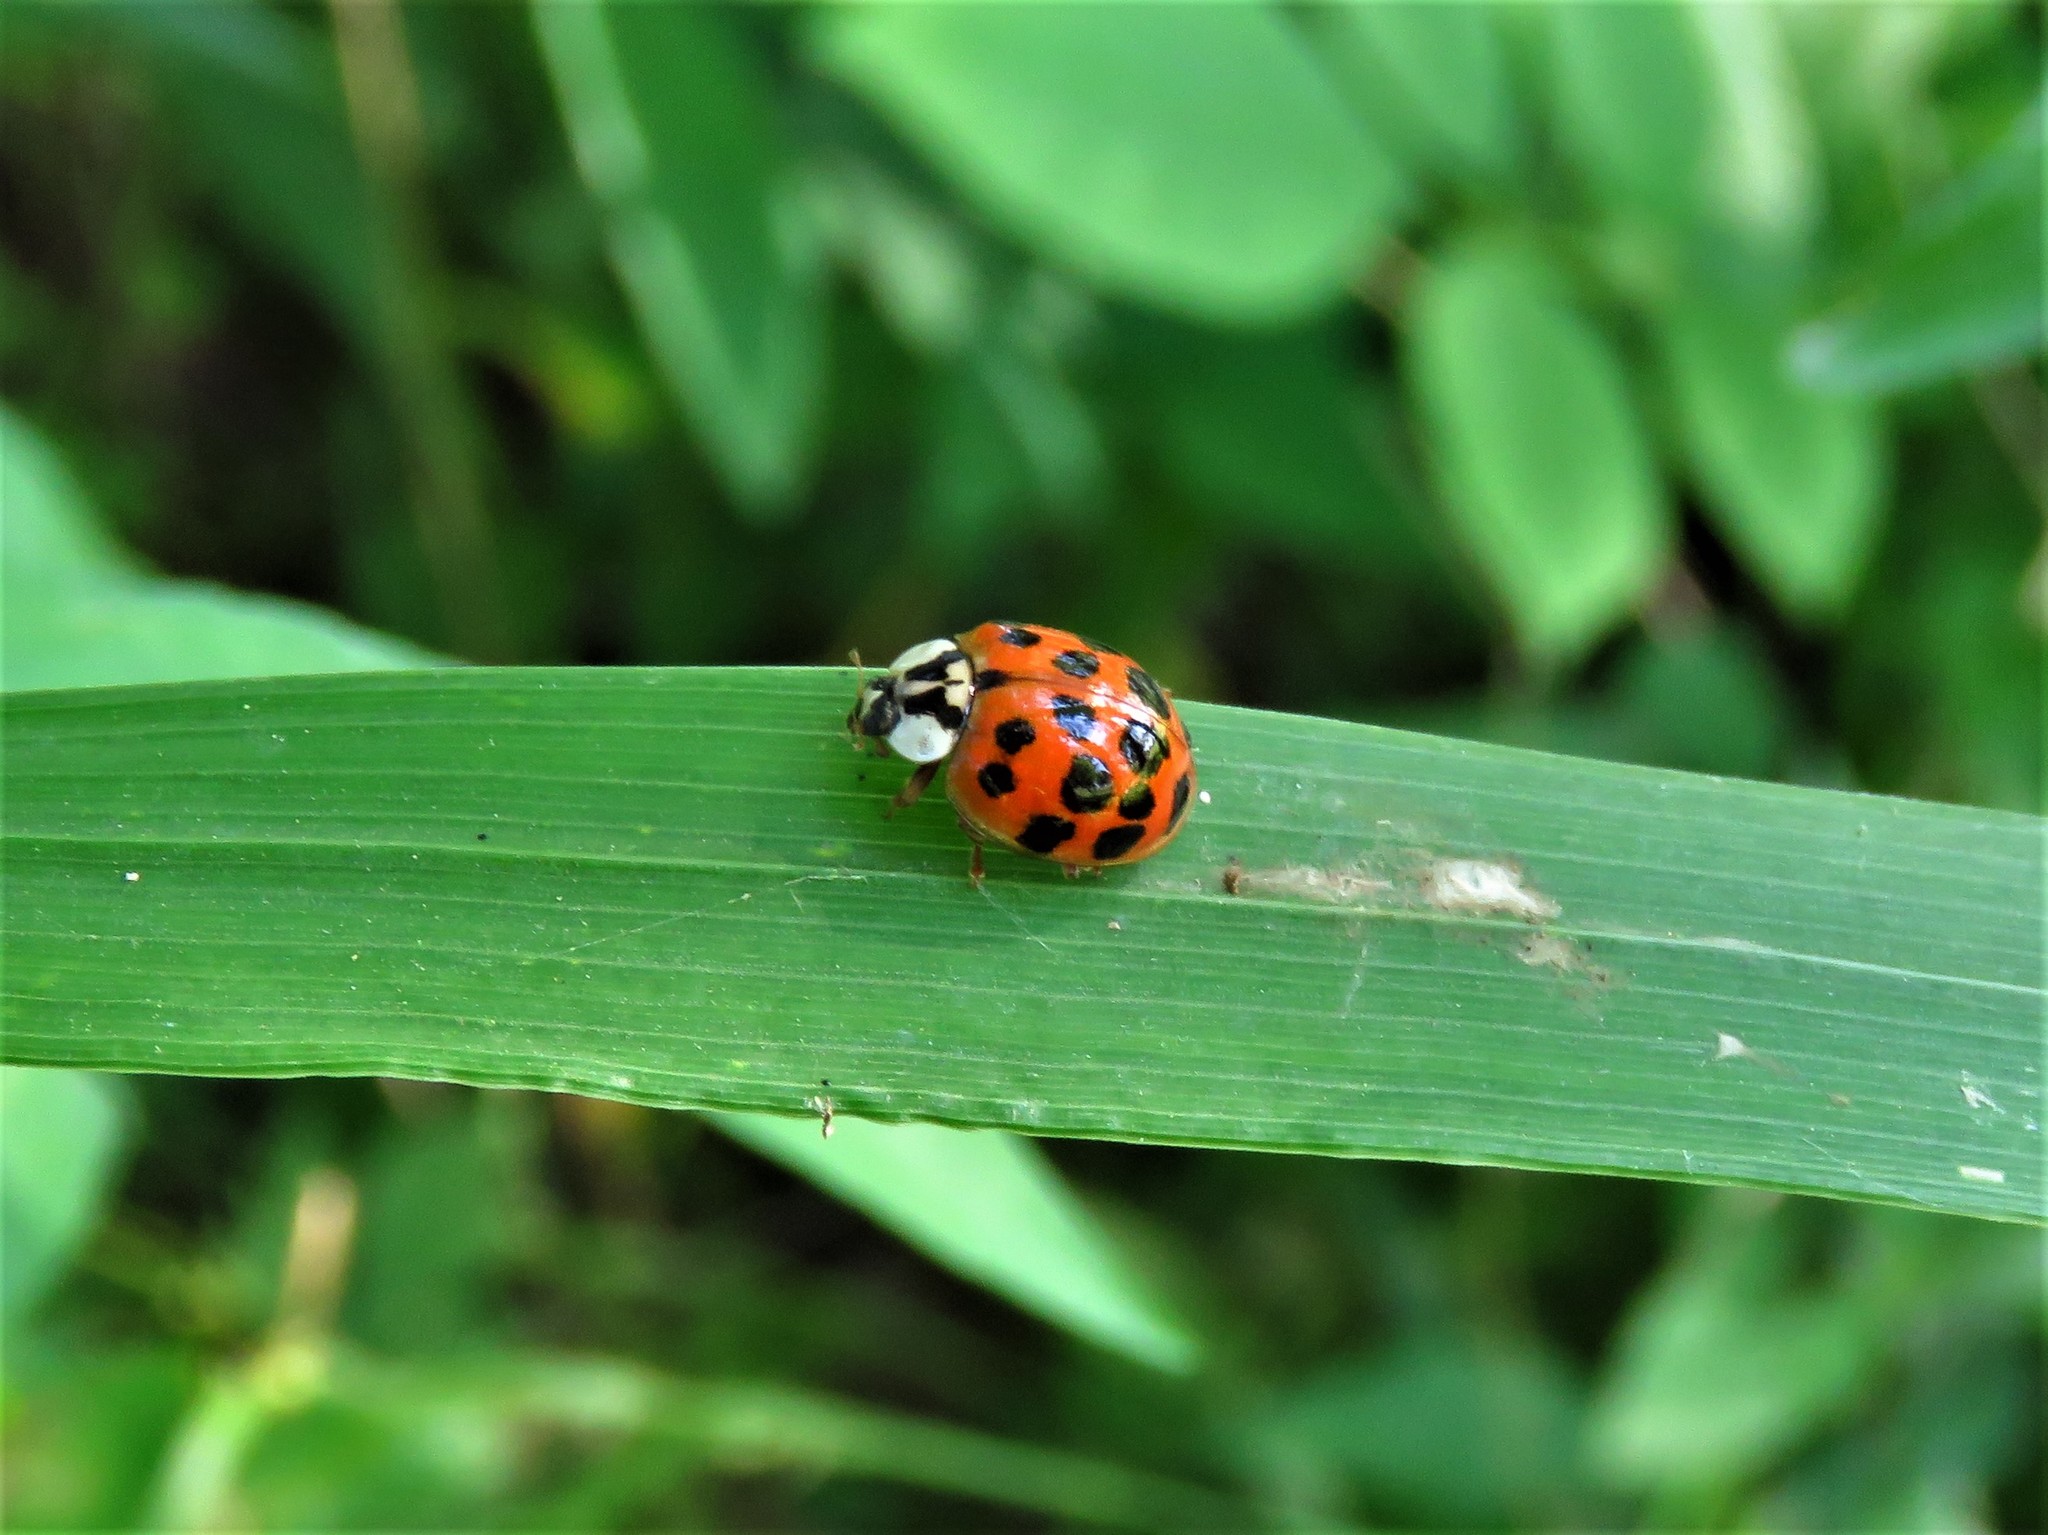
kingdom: Animalia
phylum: Arthropoda
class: Insecta
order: Coleoptera
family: Coccinellidae
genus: Harmonia
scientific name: Harmonia axyridis
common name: Harlequin ladybird
